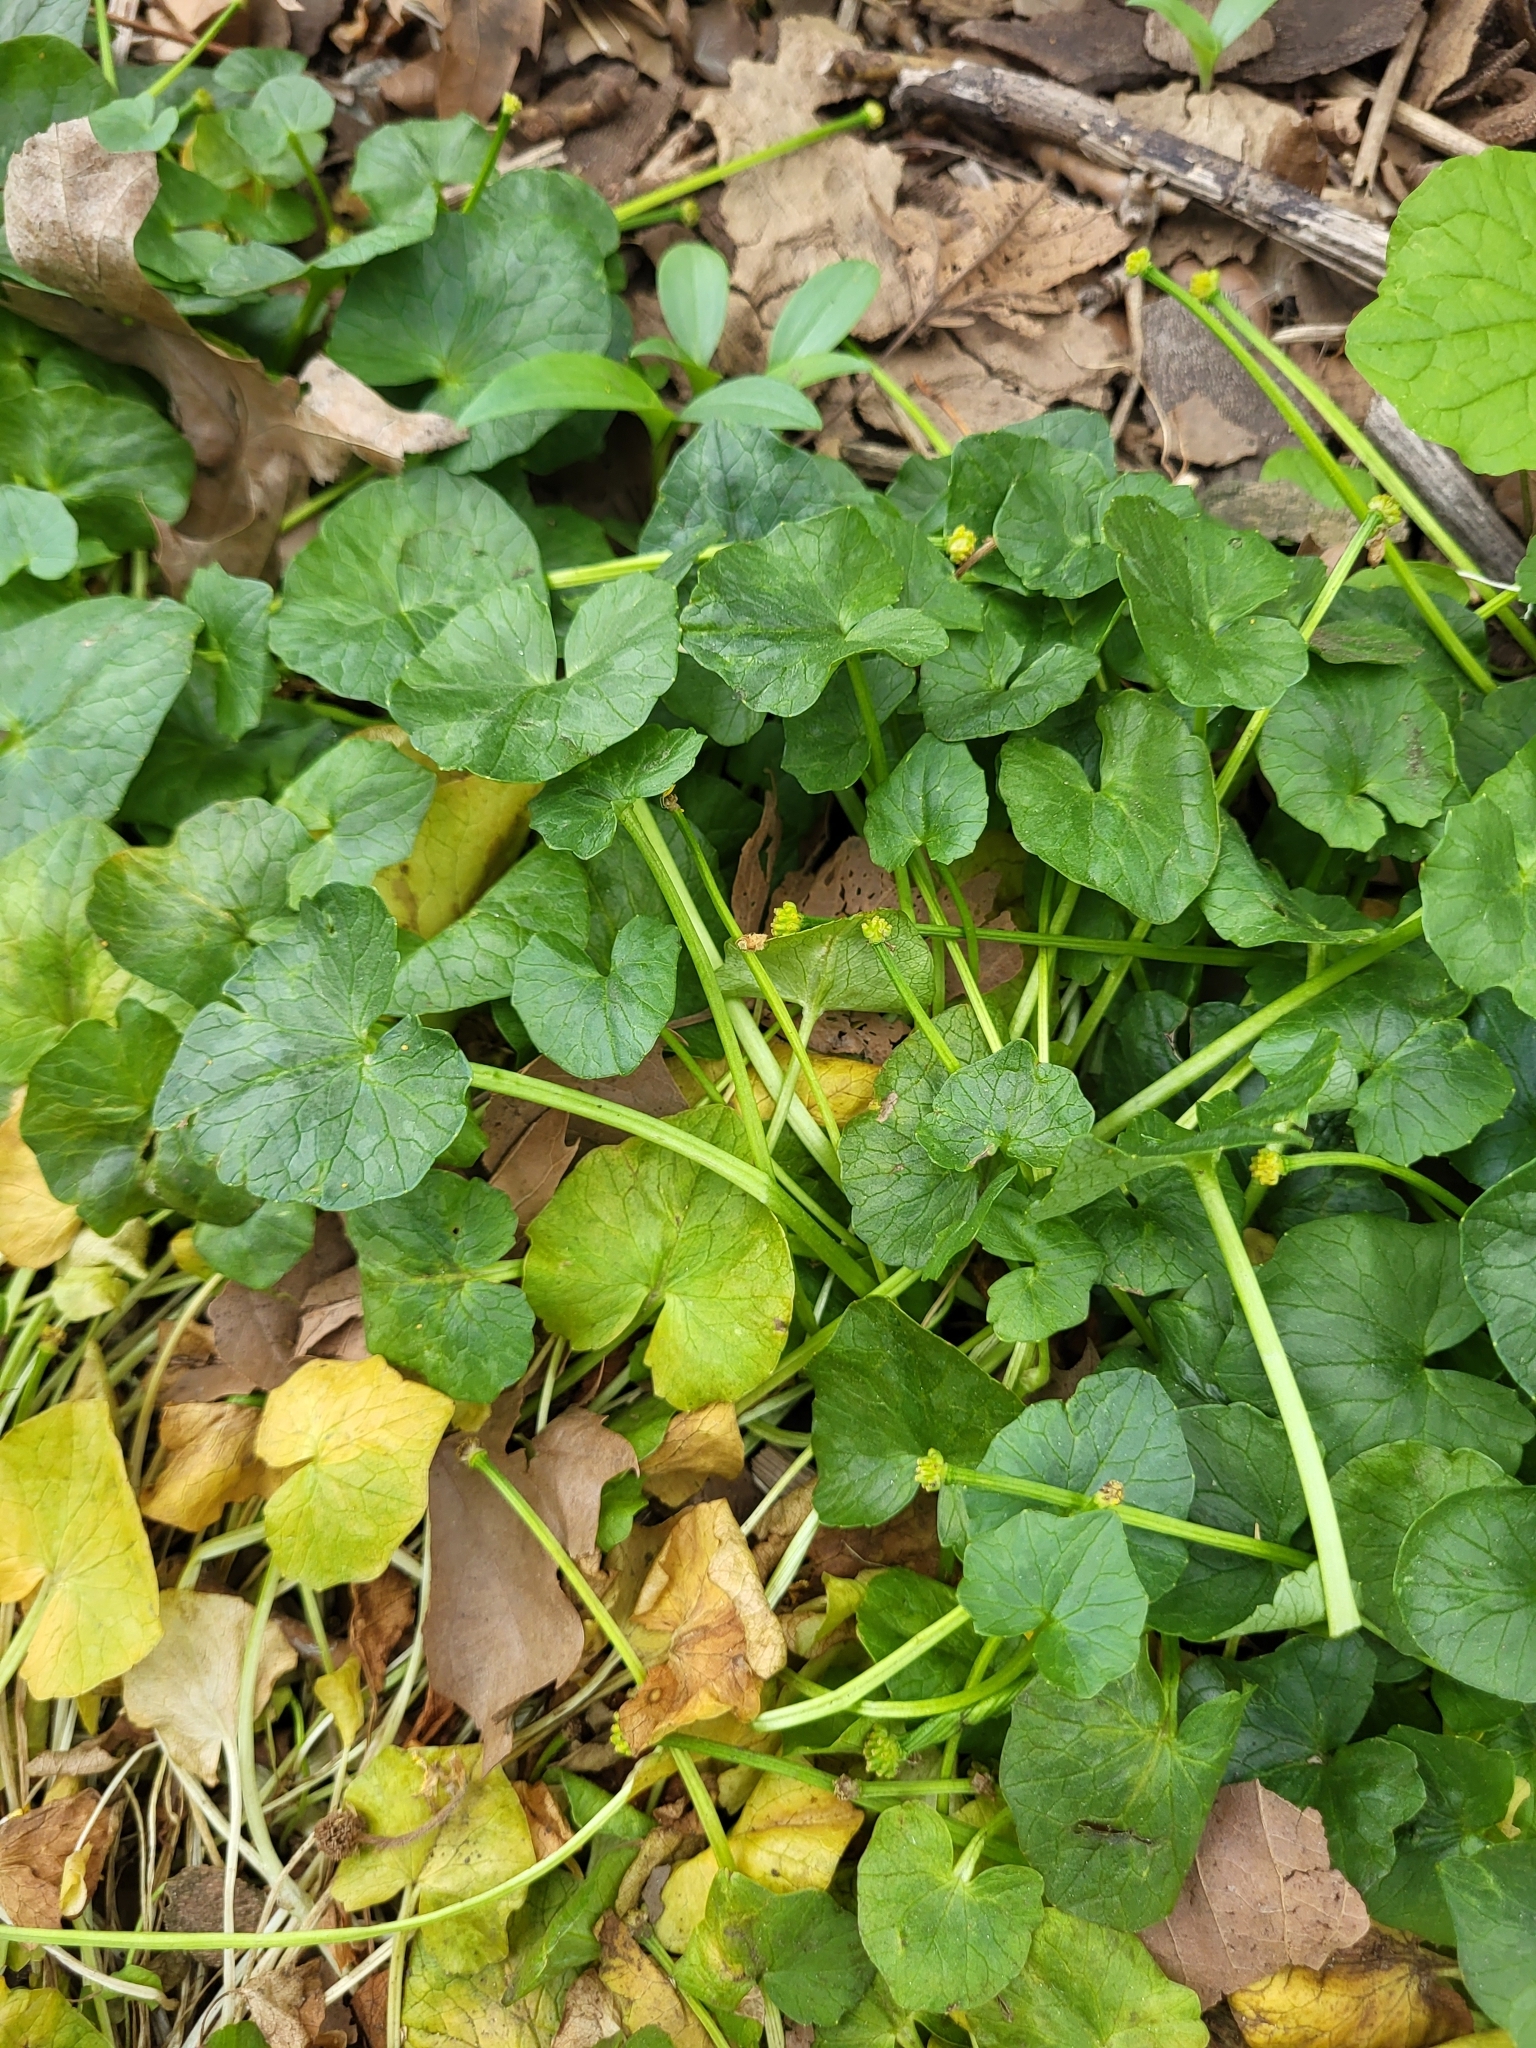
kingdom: Plantae
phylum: Tracheophyta
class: Magnoliopsida
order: Ranunculales
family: Ranunculaceae
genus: Ficaria
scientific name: Ficaria verna
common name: Lesser celandine
